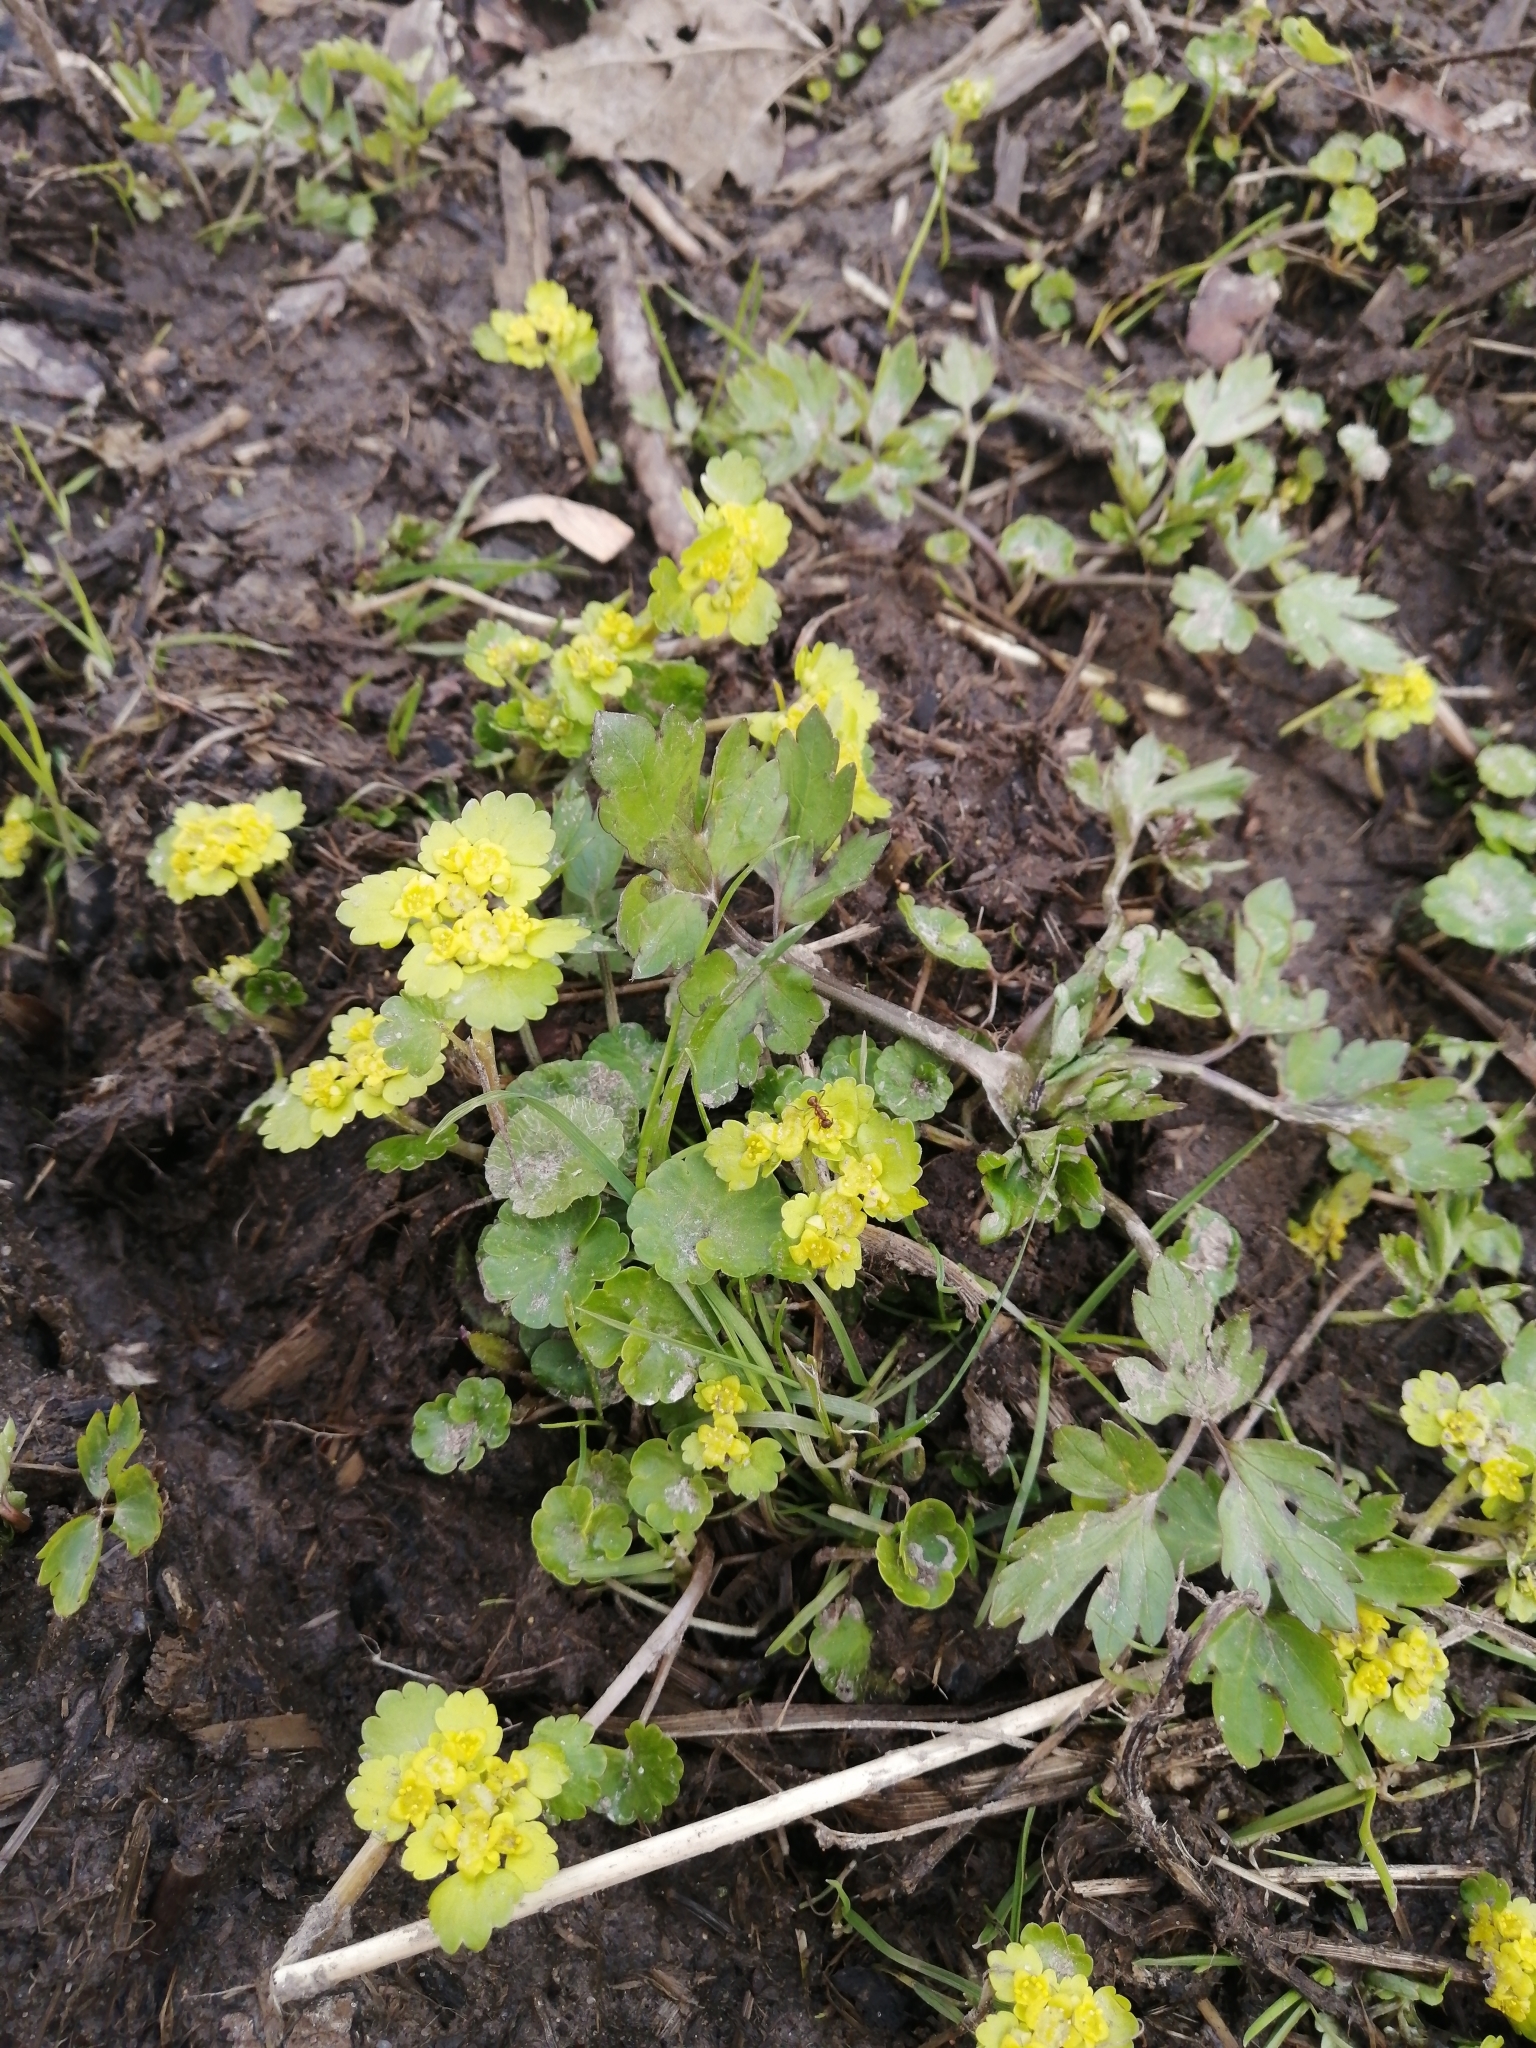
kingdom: Plantae
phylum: Tracheophyta
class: Magnoliopsida
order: Saxifragales
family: Saxifragaceae
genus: Chrysosplenium
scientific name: Chrysosplenium alternifolium
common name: Alternate-leaved golden-saxifrage
